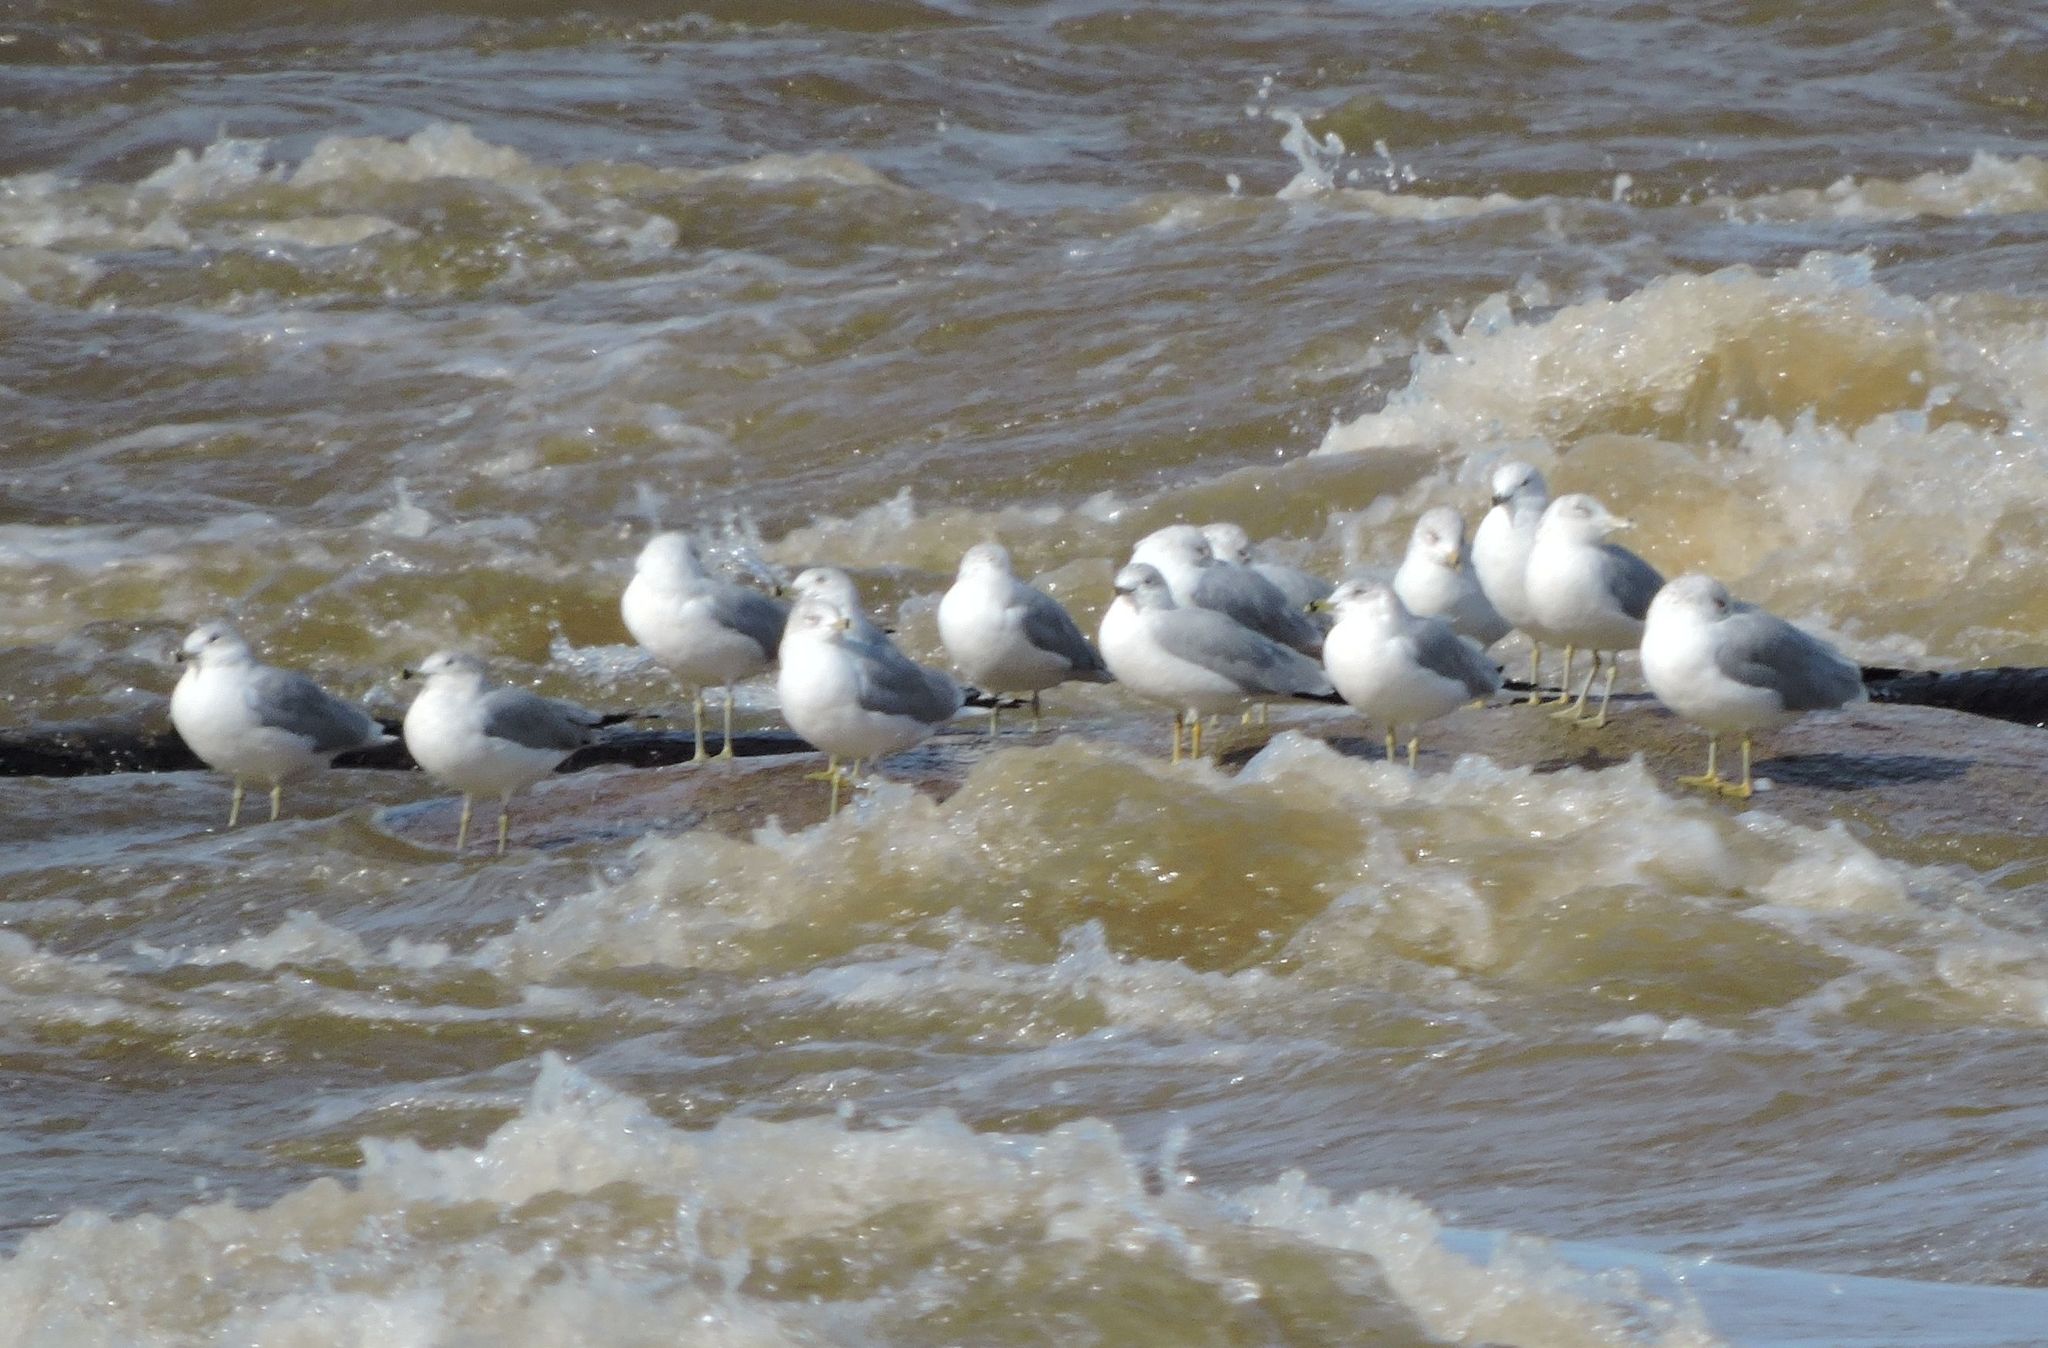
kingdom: Animalia
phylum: Chordata
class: Aves
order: Charadriiformes
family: Laridae
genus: Larus
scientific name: Larus delawarensis
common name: Ring-billed gull
